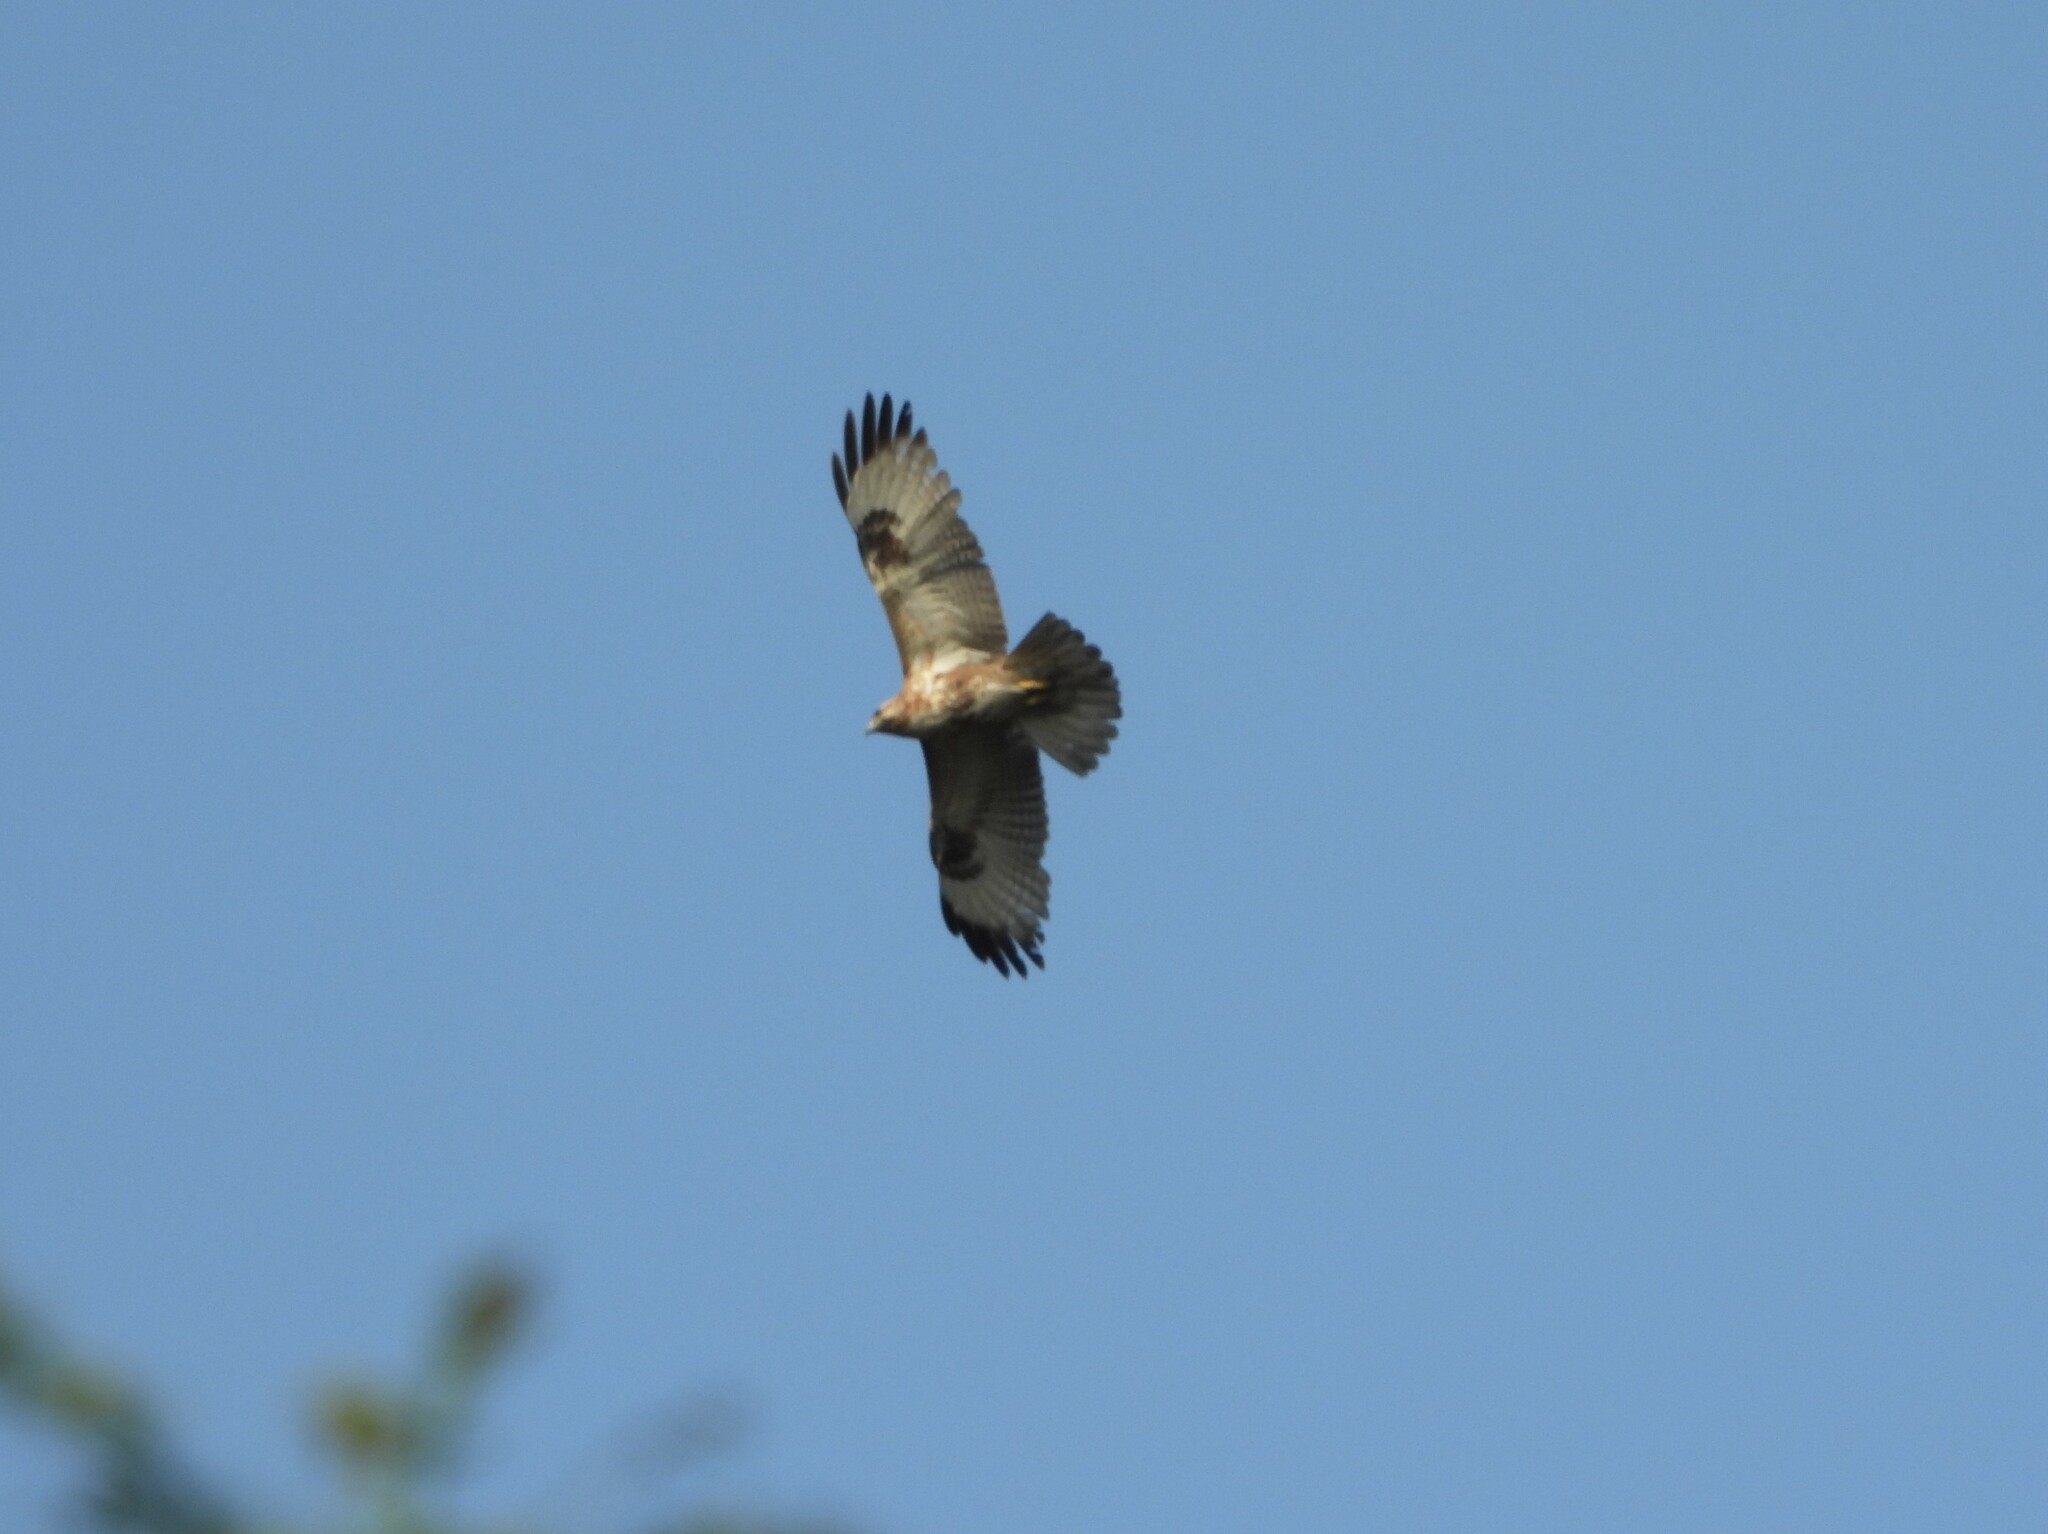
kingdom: Animalia
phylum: Chordata
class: Aves
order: Accipitriformes
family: Accipitridae
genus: Buteo
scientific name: Buteo japonicus
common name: Eastern buzzard
